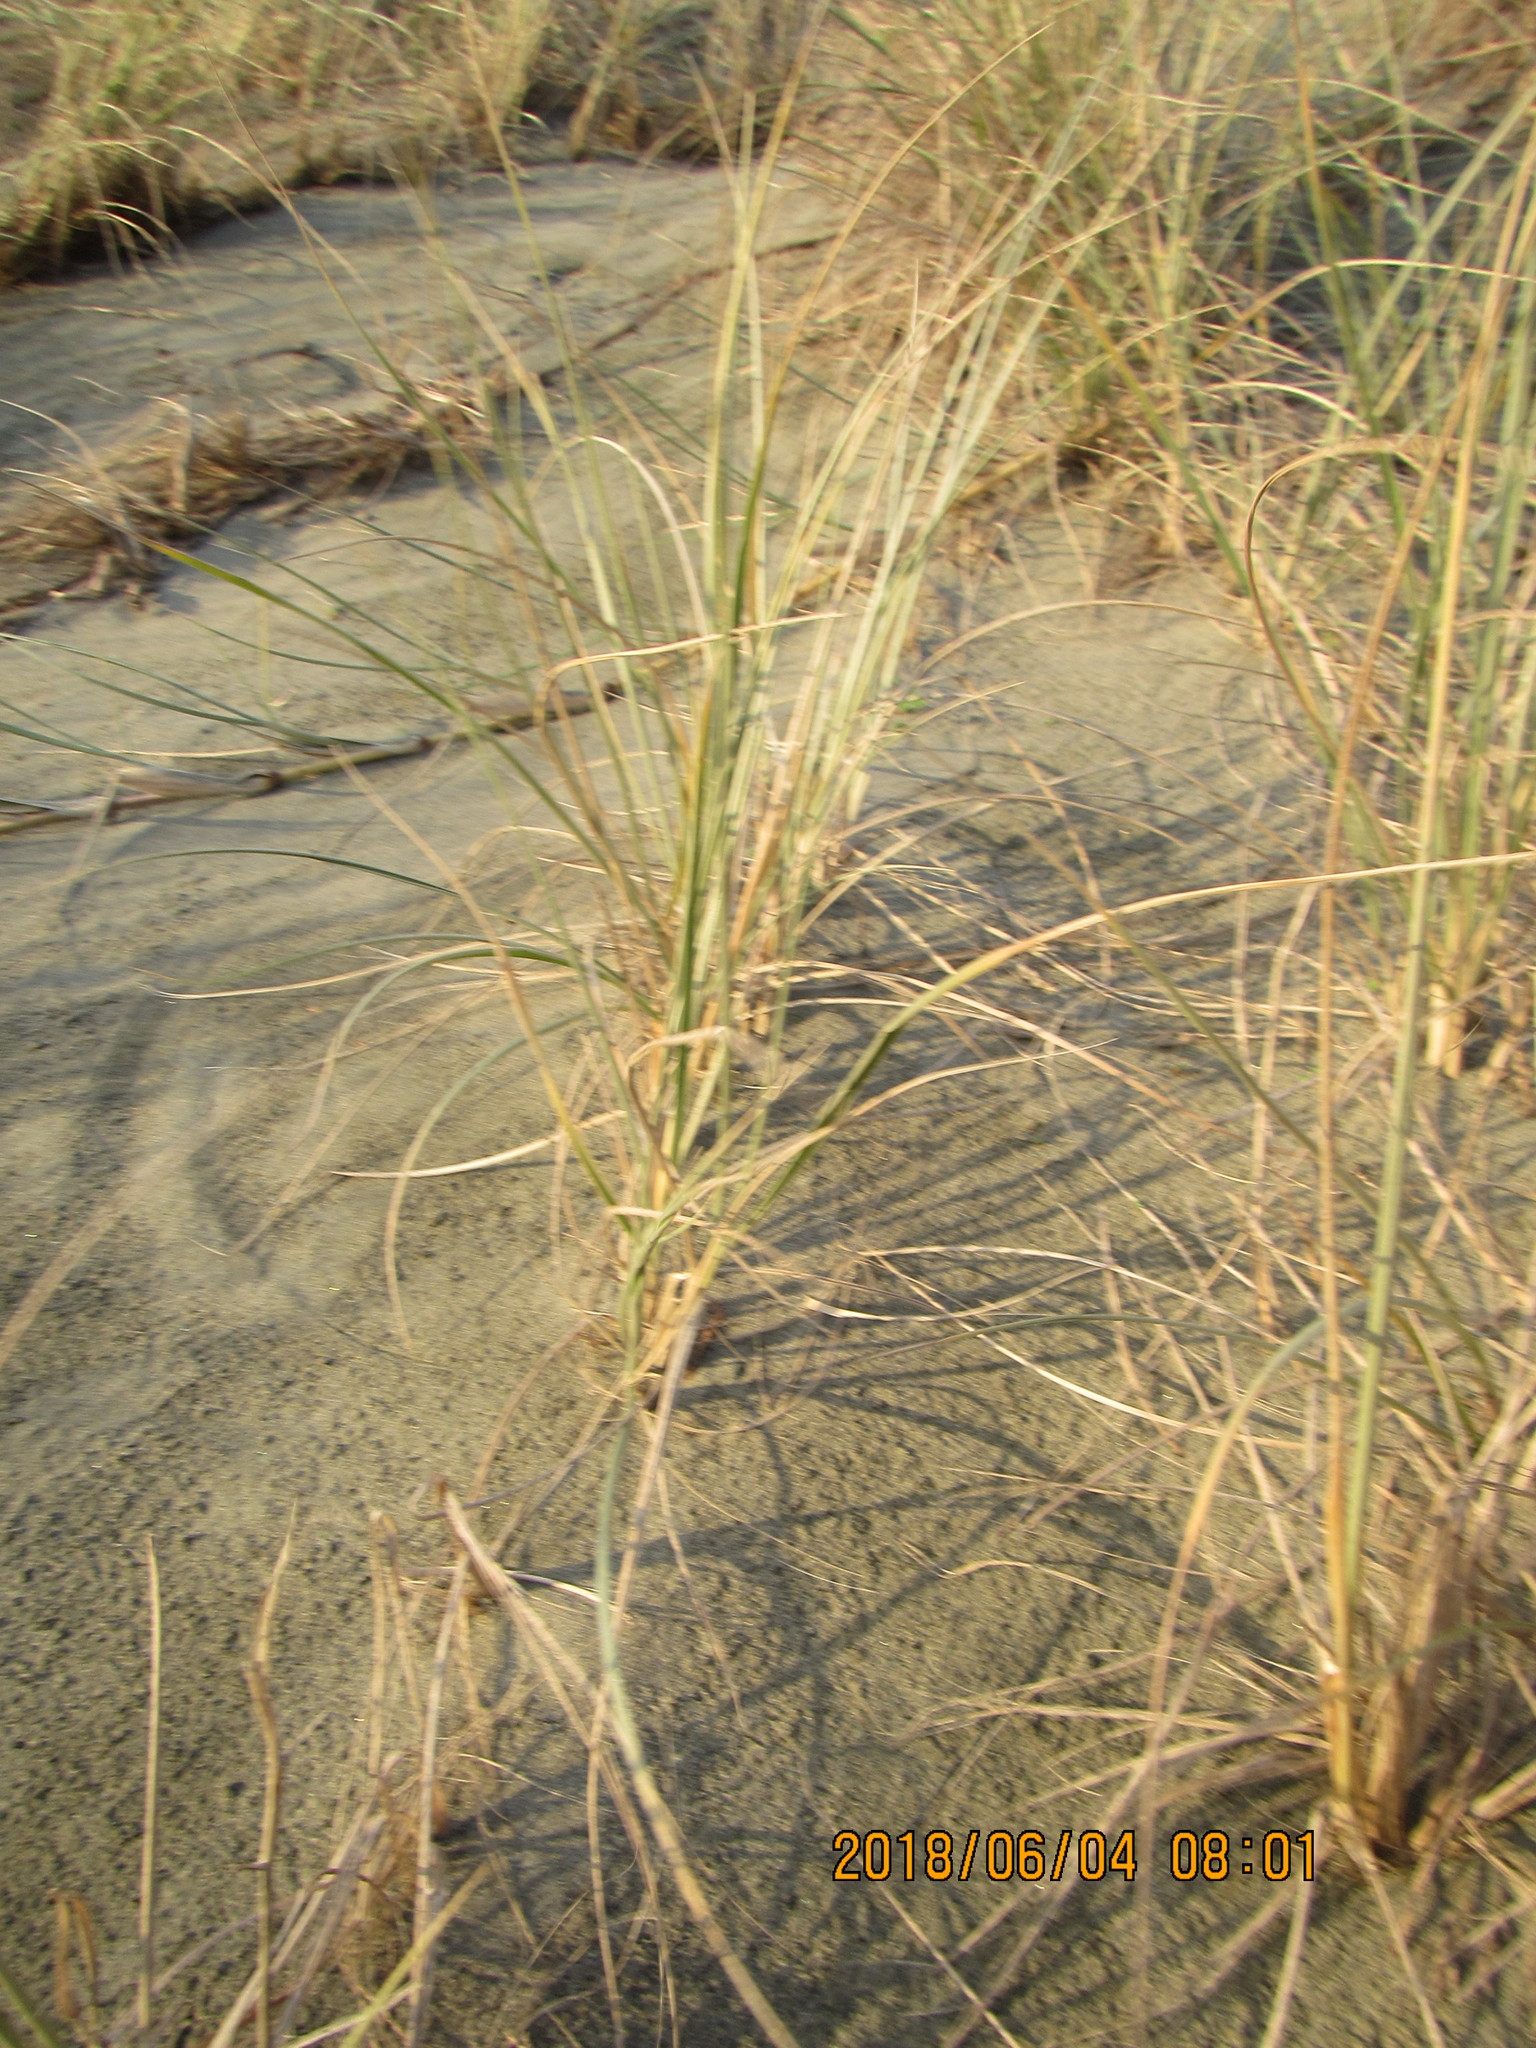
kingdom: Plantae
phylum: Tracheophyta
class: Liliopsida
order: Poales
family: Poaceae
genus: Spinifex
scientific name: Spinifex sericeus
